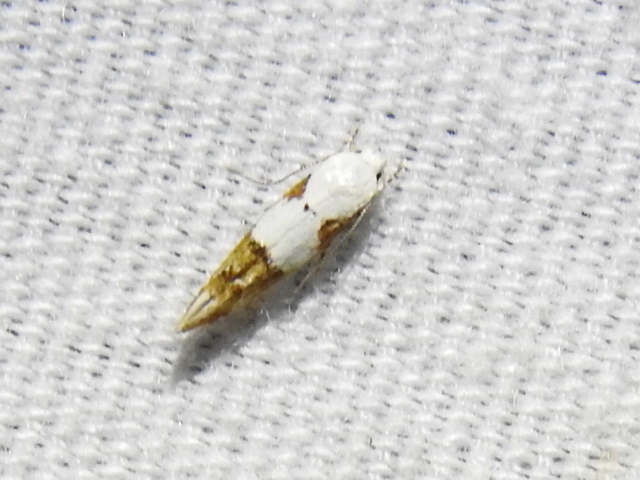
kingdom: Animalia
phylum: Arthropoda
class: Insecta
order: Lepidoptera
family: Momphidae
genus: Mompha
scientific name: Mompha circumscriptella
